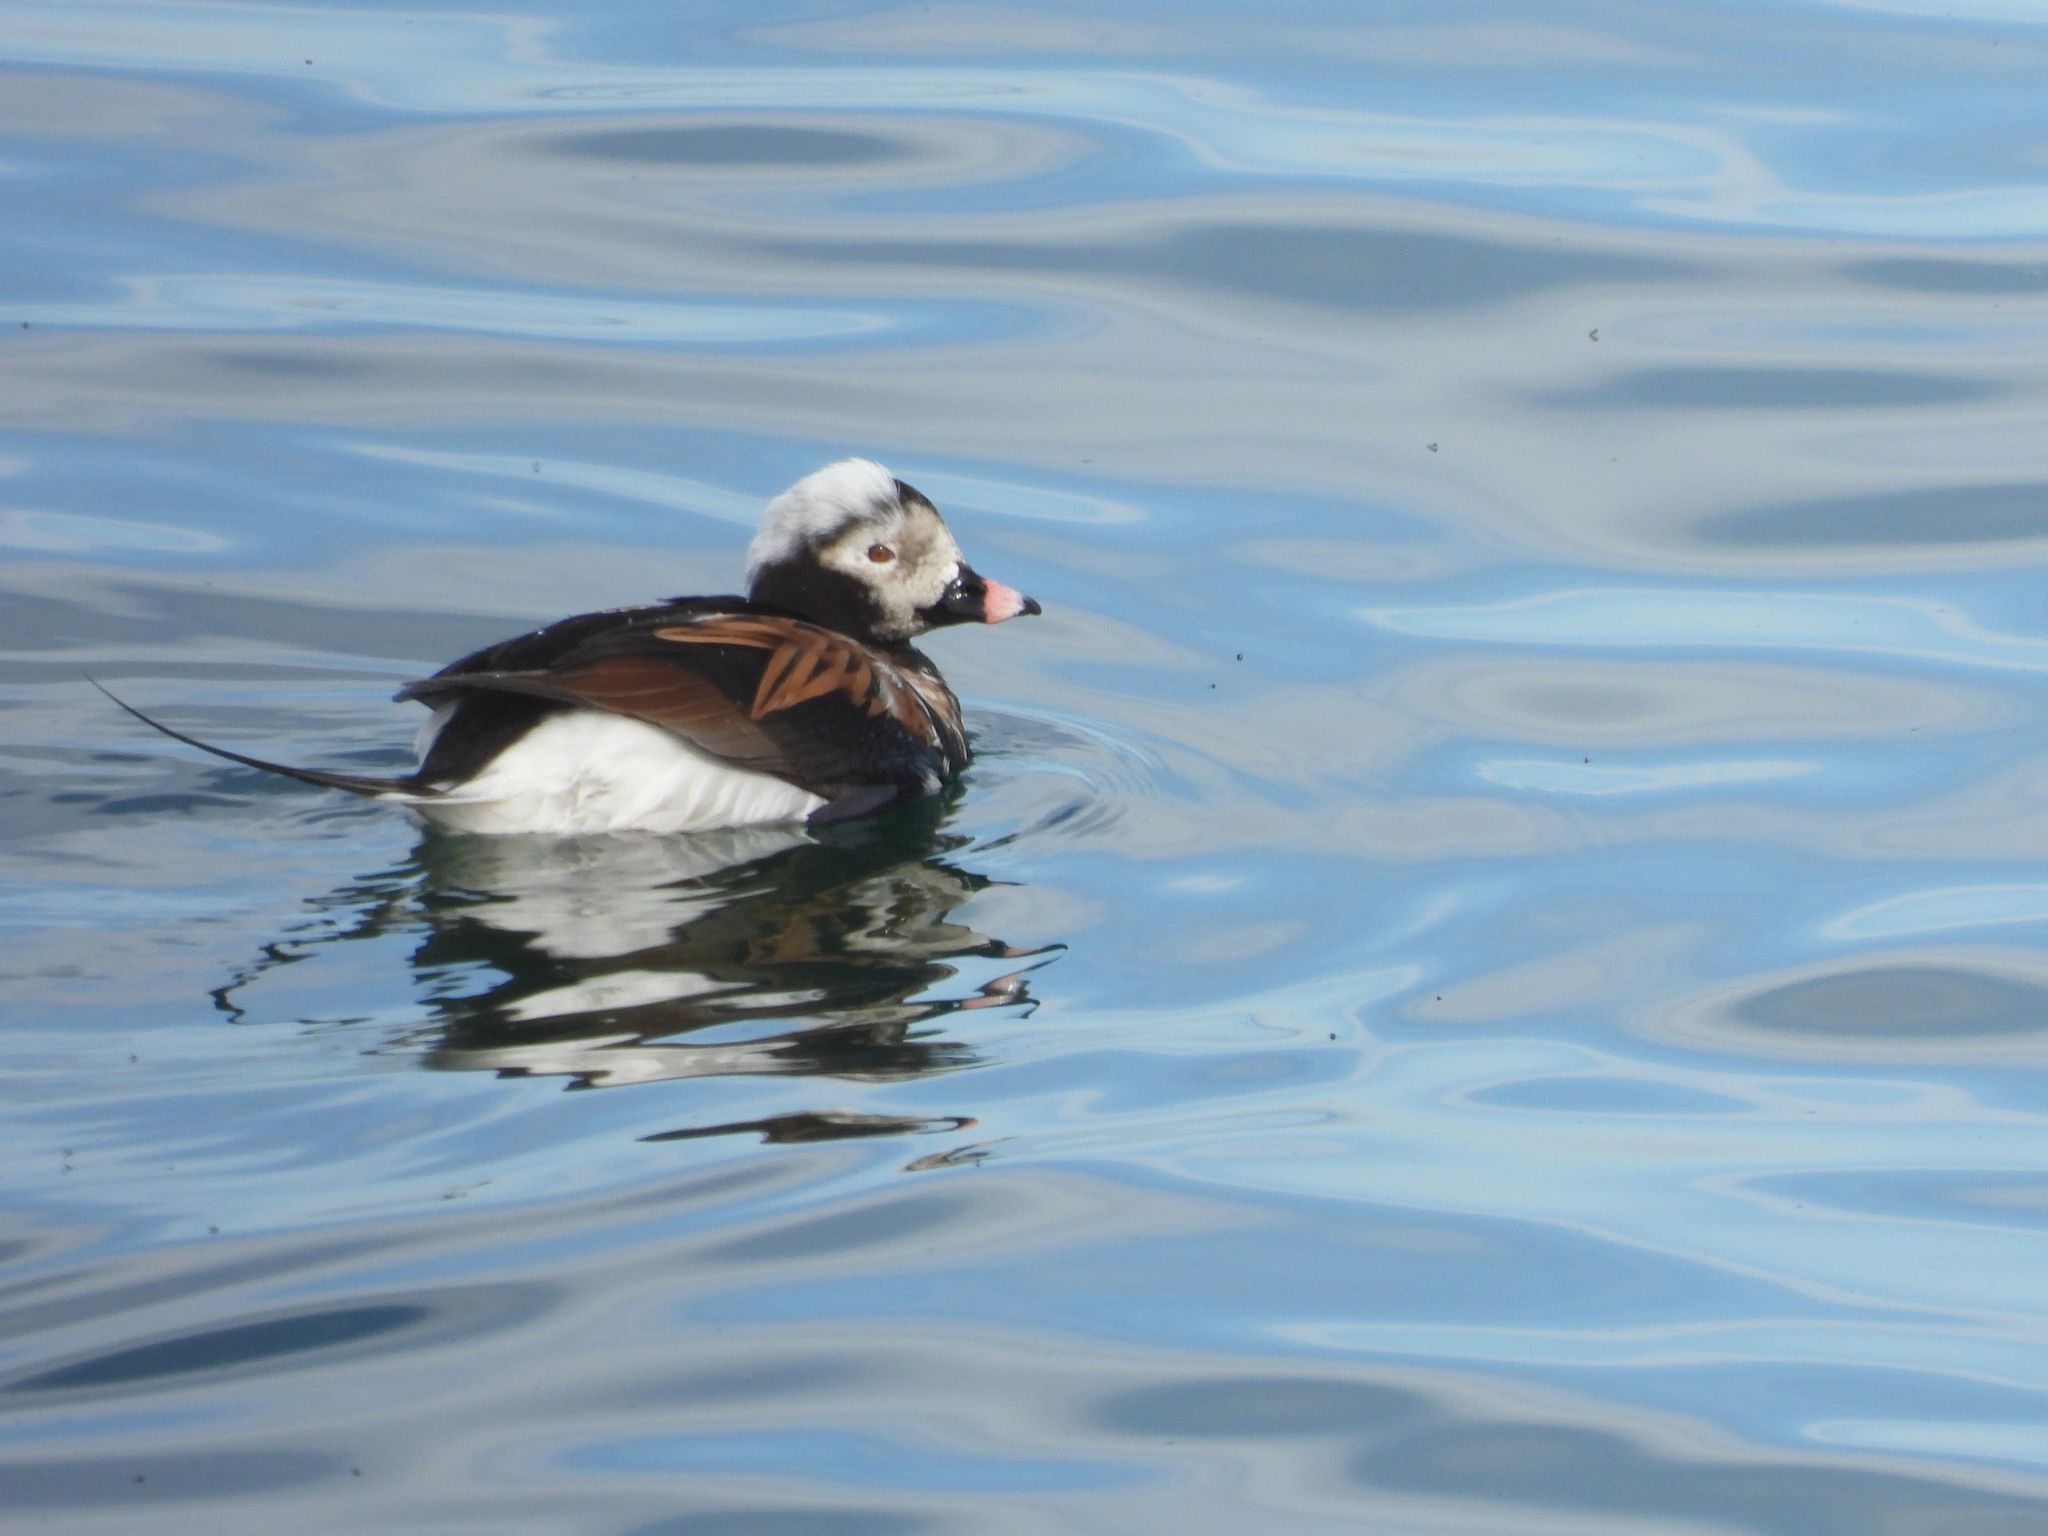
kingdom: Animalia
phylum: Chordata
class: Aves
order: Anseriformes
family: Anatidae
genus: Clangula
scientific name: Clangula hyemalis
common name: Long-tailed duck
